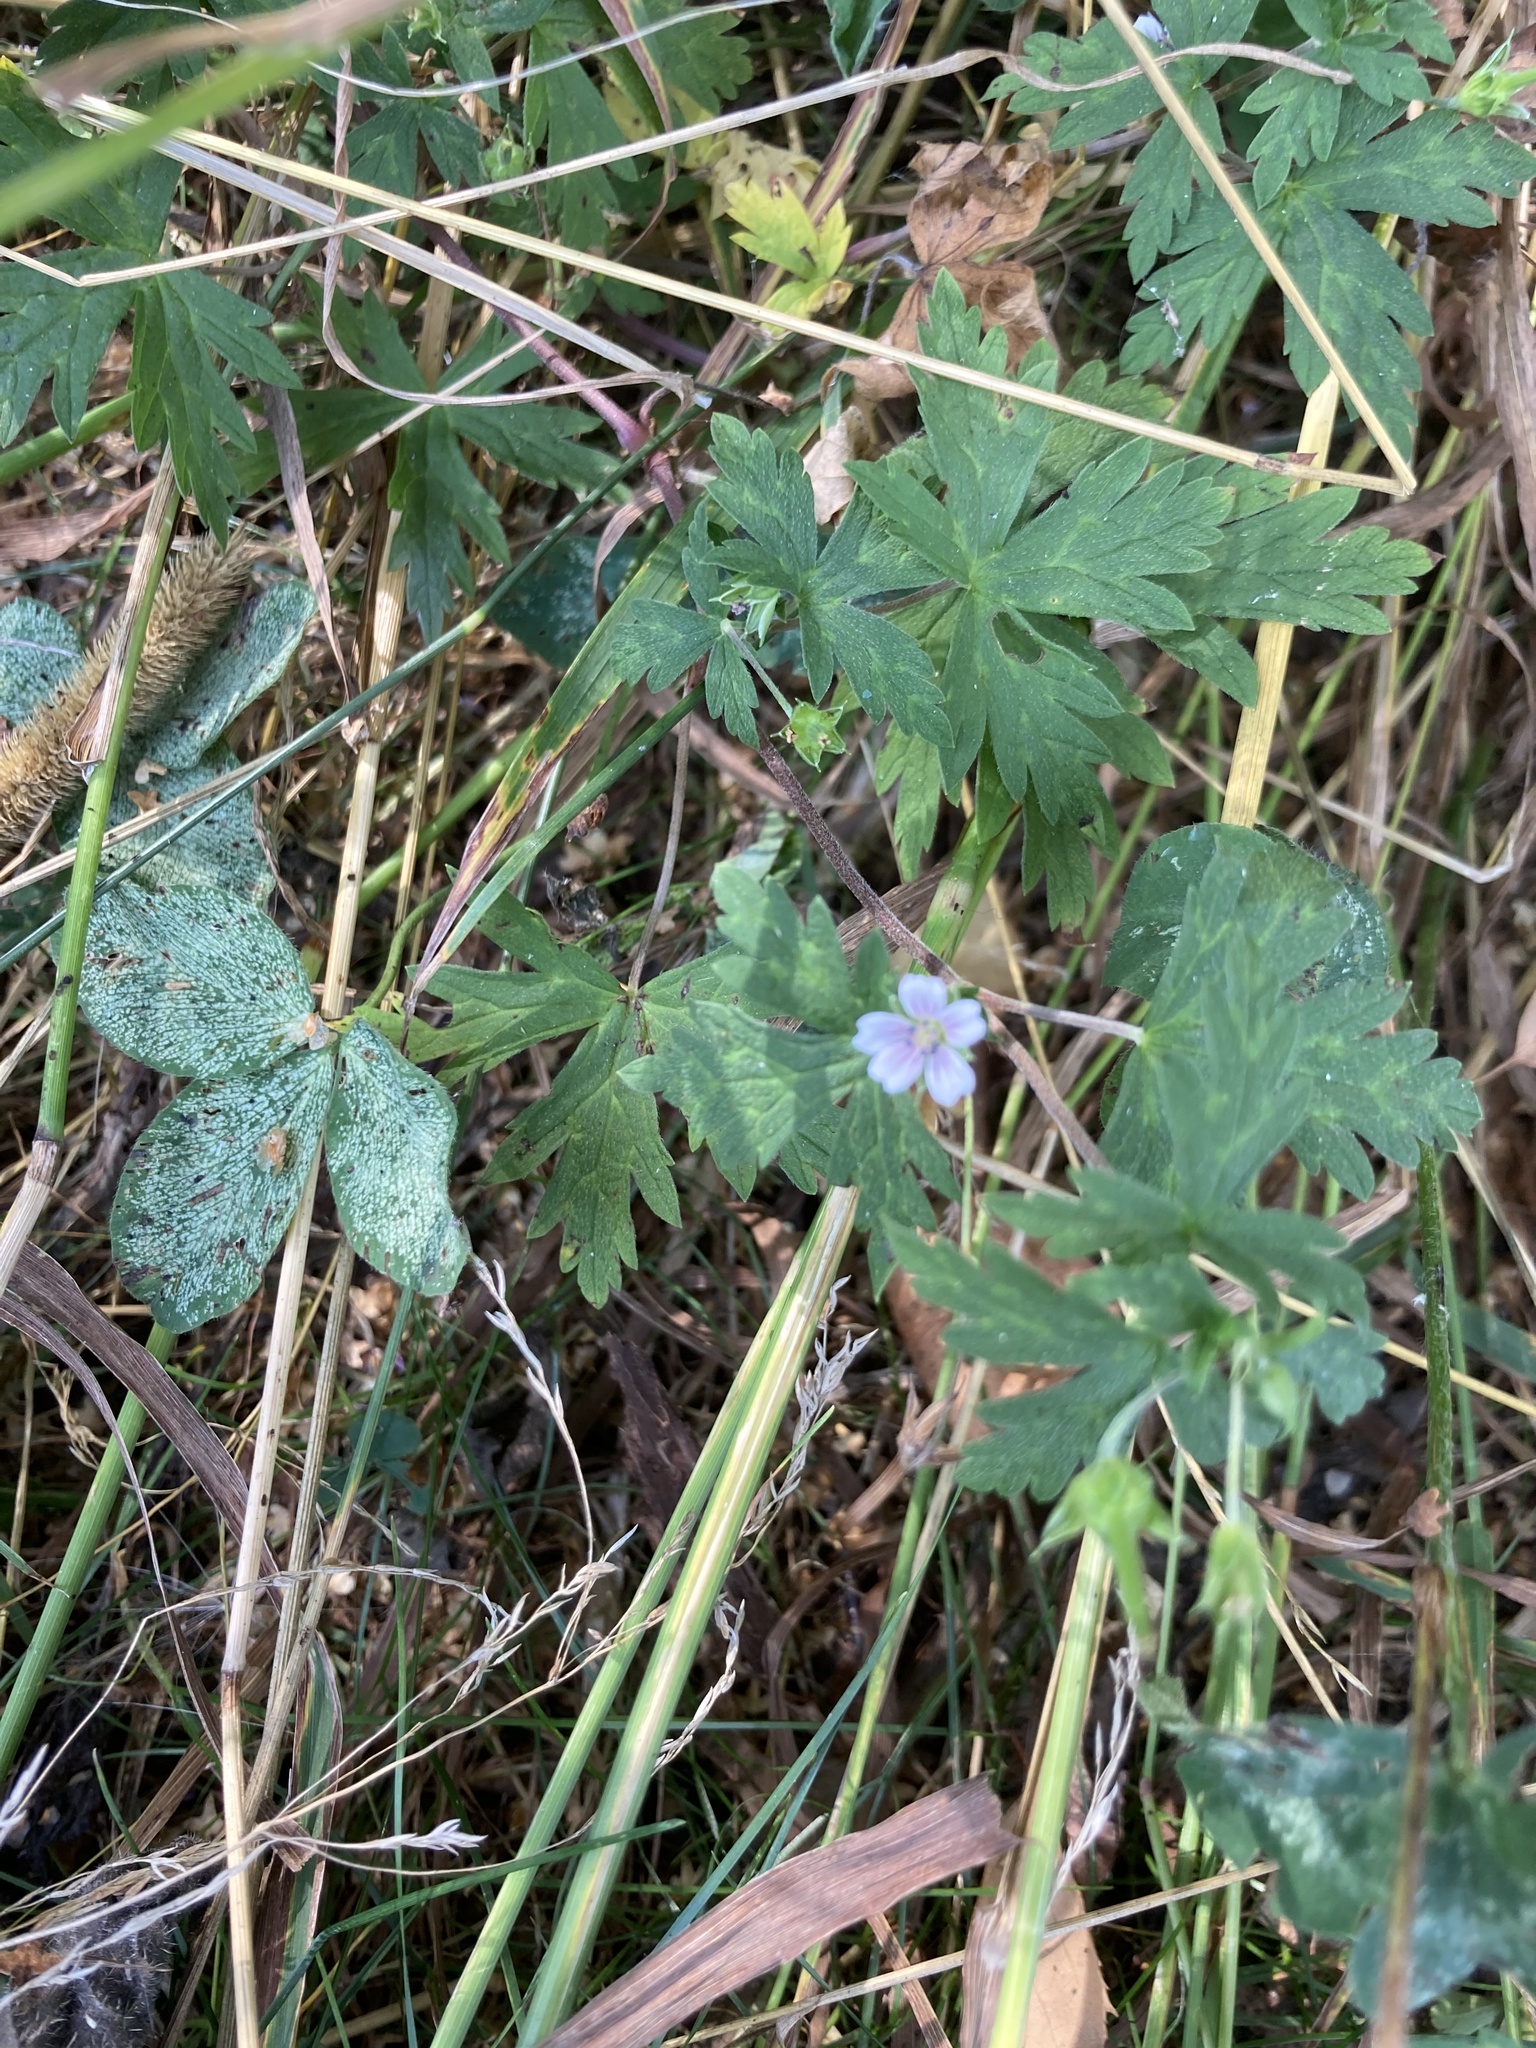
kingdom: Plantae
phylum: Tracheophyta
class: Magnoliopsida
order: Geraniales
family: Geraniaceae
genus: Geranium
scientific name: Geranium sibiricum
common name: Siberian crane's-bill
